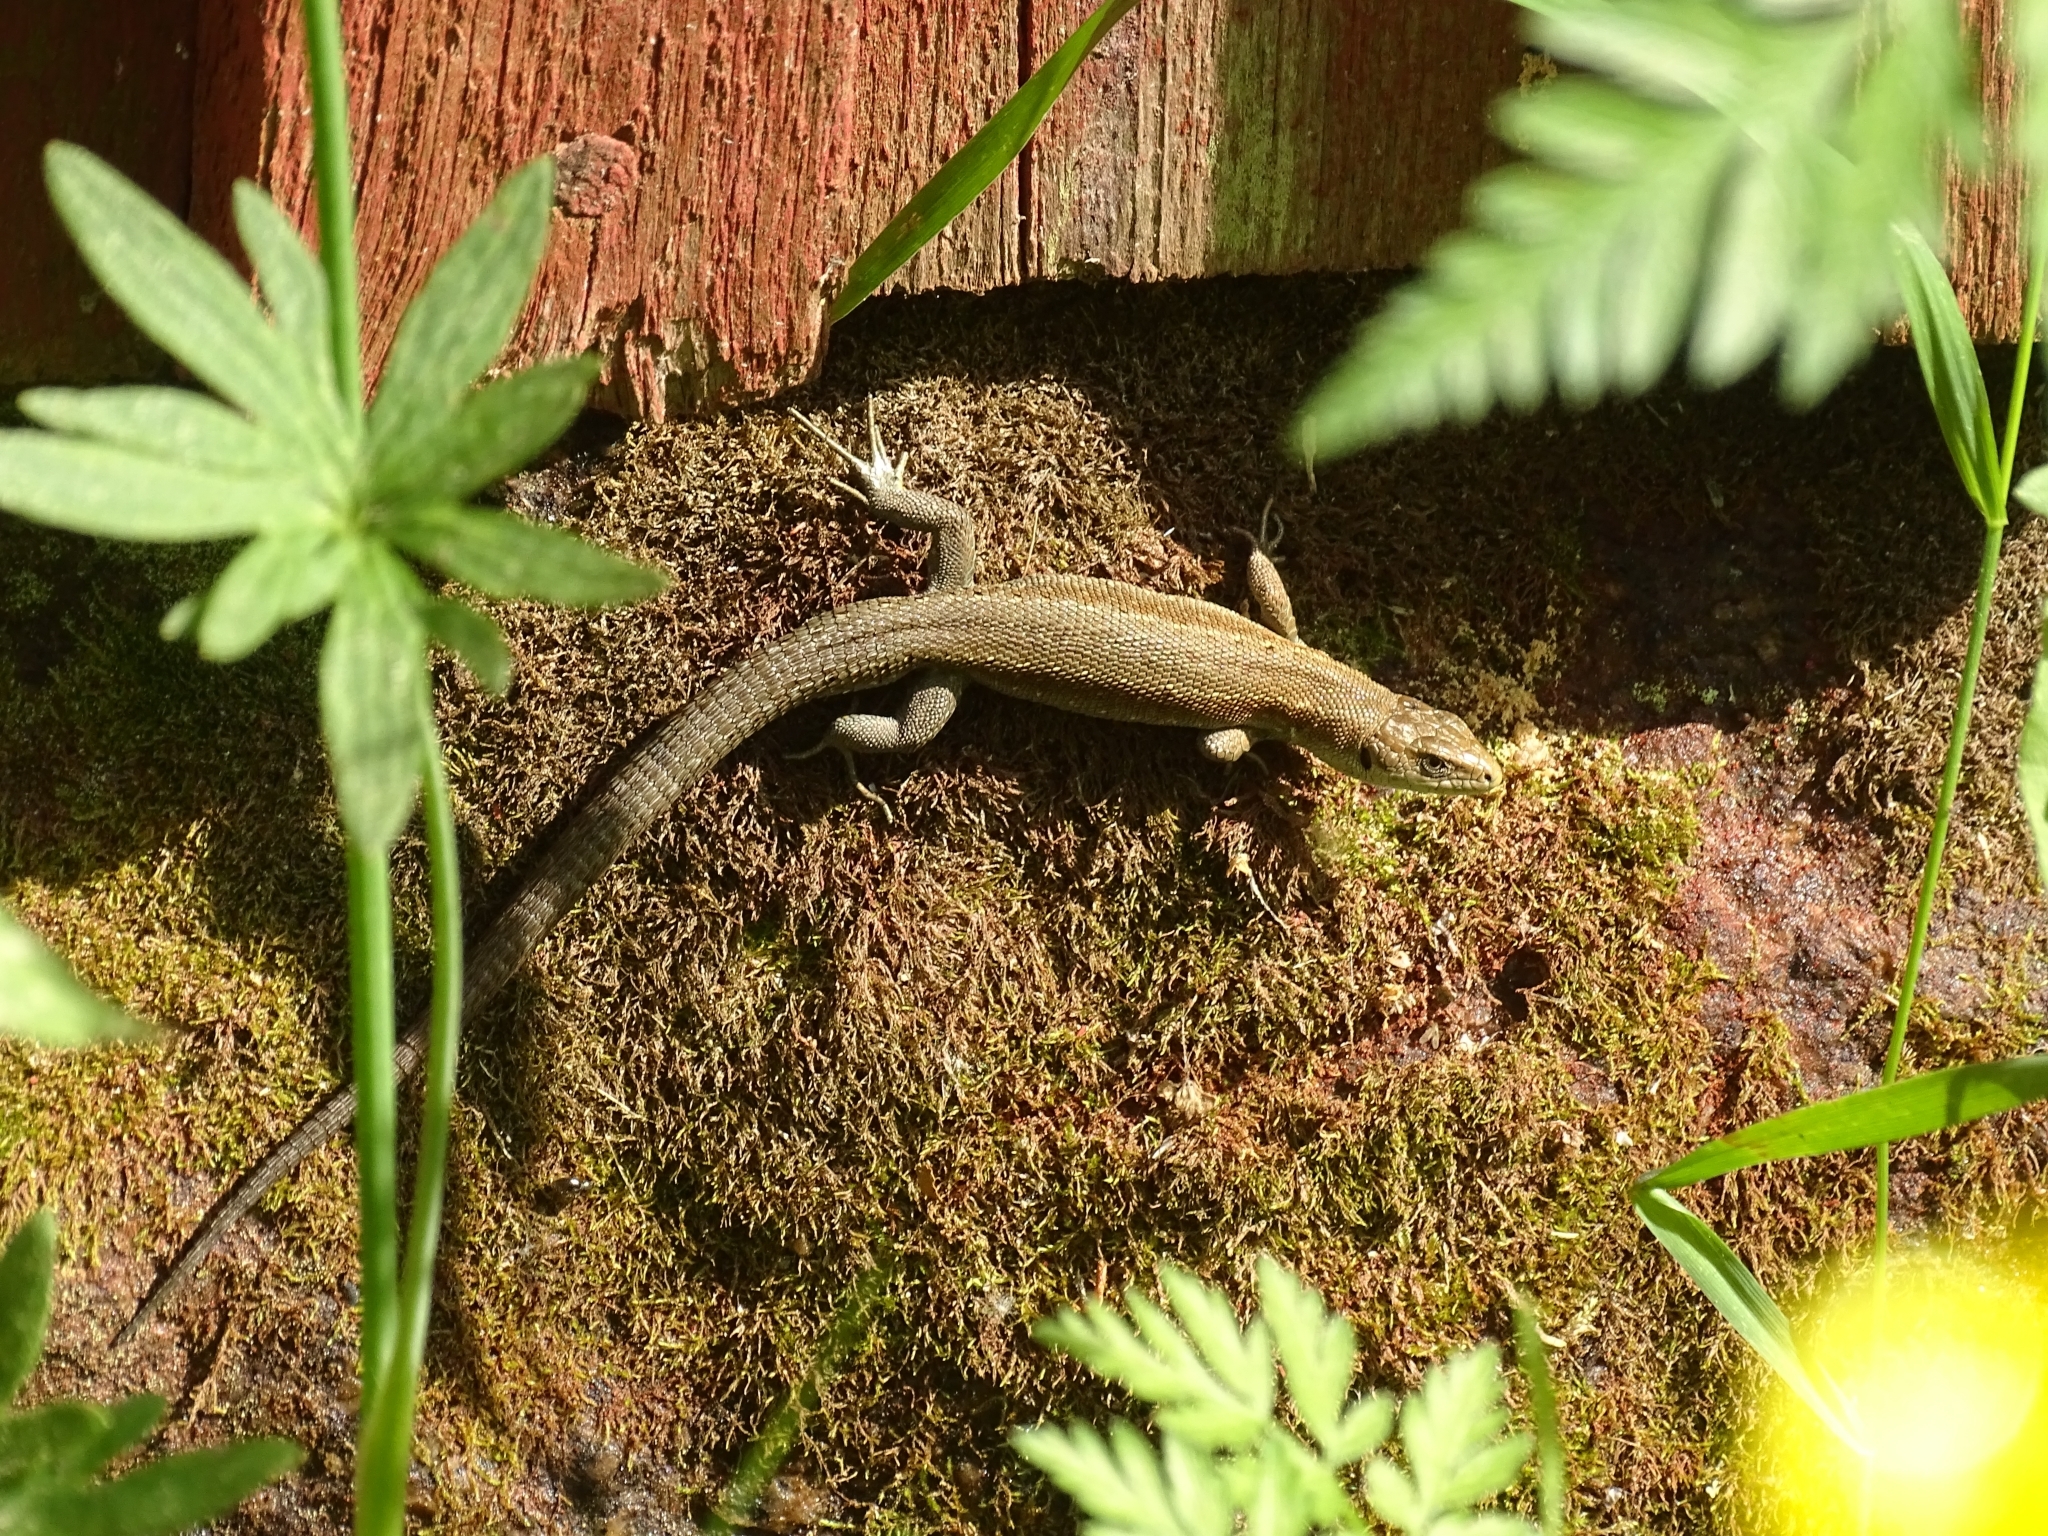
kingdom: Animalia
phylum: Chordata
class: Squamata
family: Lacertidae
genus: Zootoca
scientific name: Zootoca vivipara
